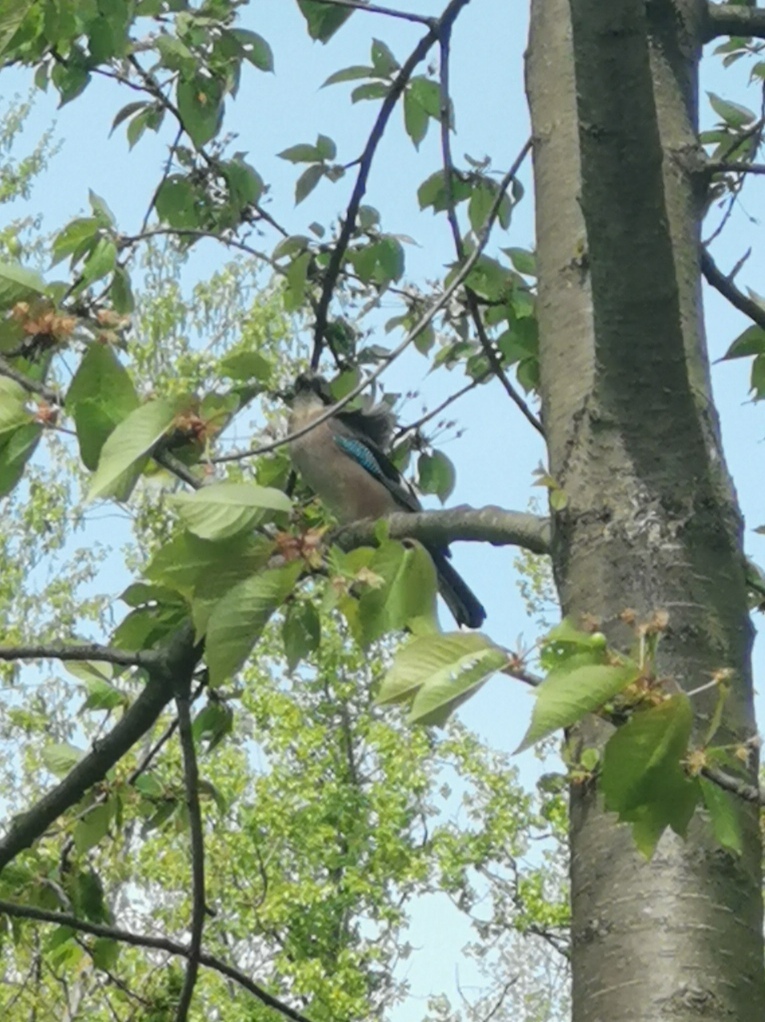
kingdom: Animalia
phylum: Chordata
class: Aves
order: Passeriformes
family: Corvidae
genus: Garrulus
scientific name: Garrulus glandarius
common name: Eurasian jay
